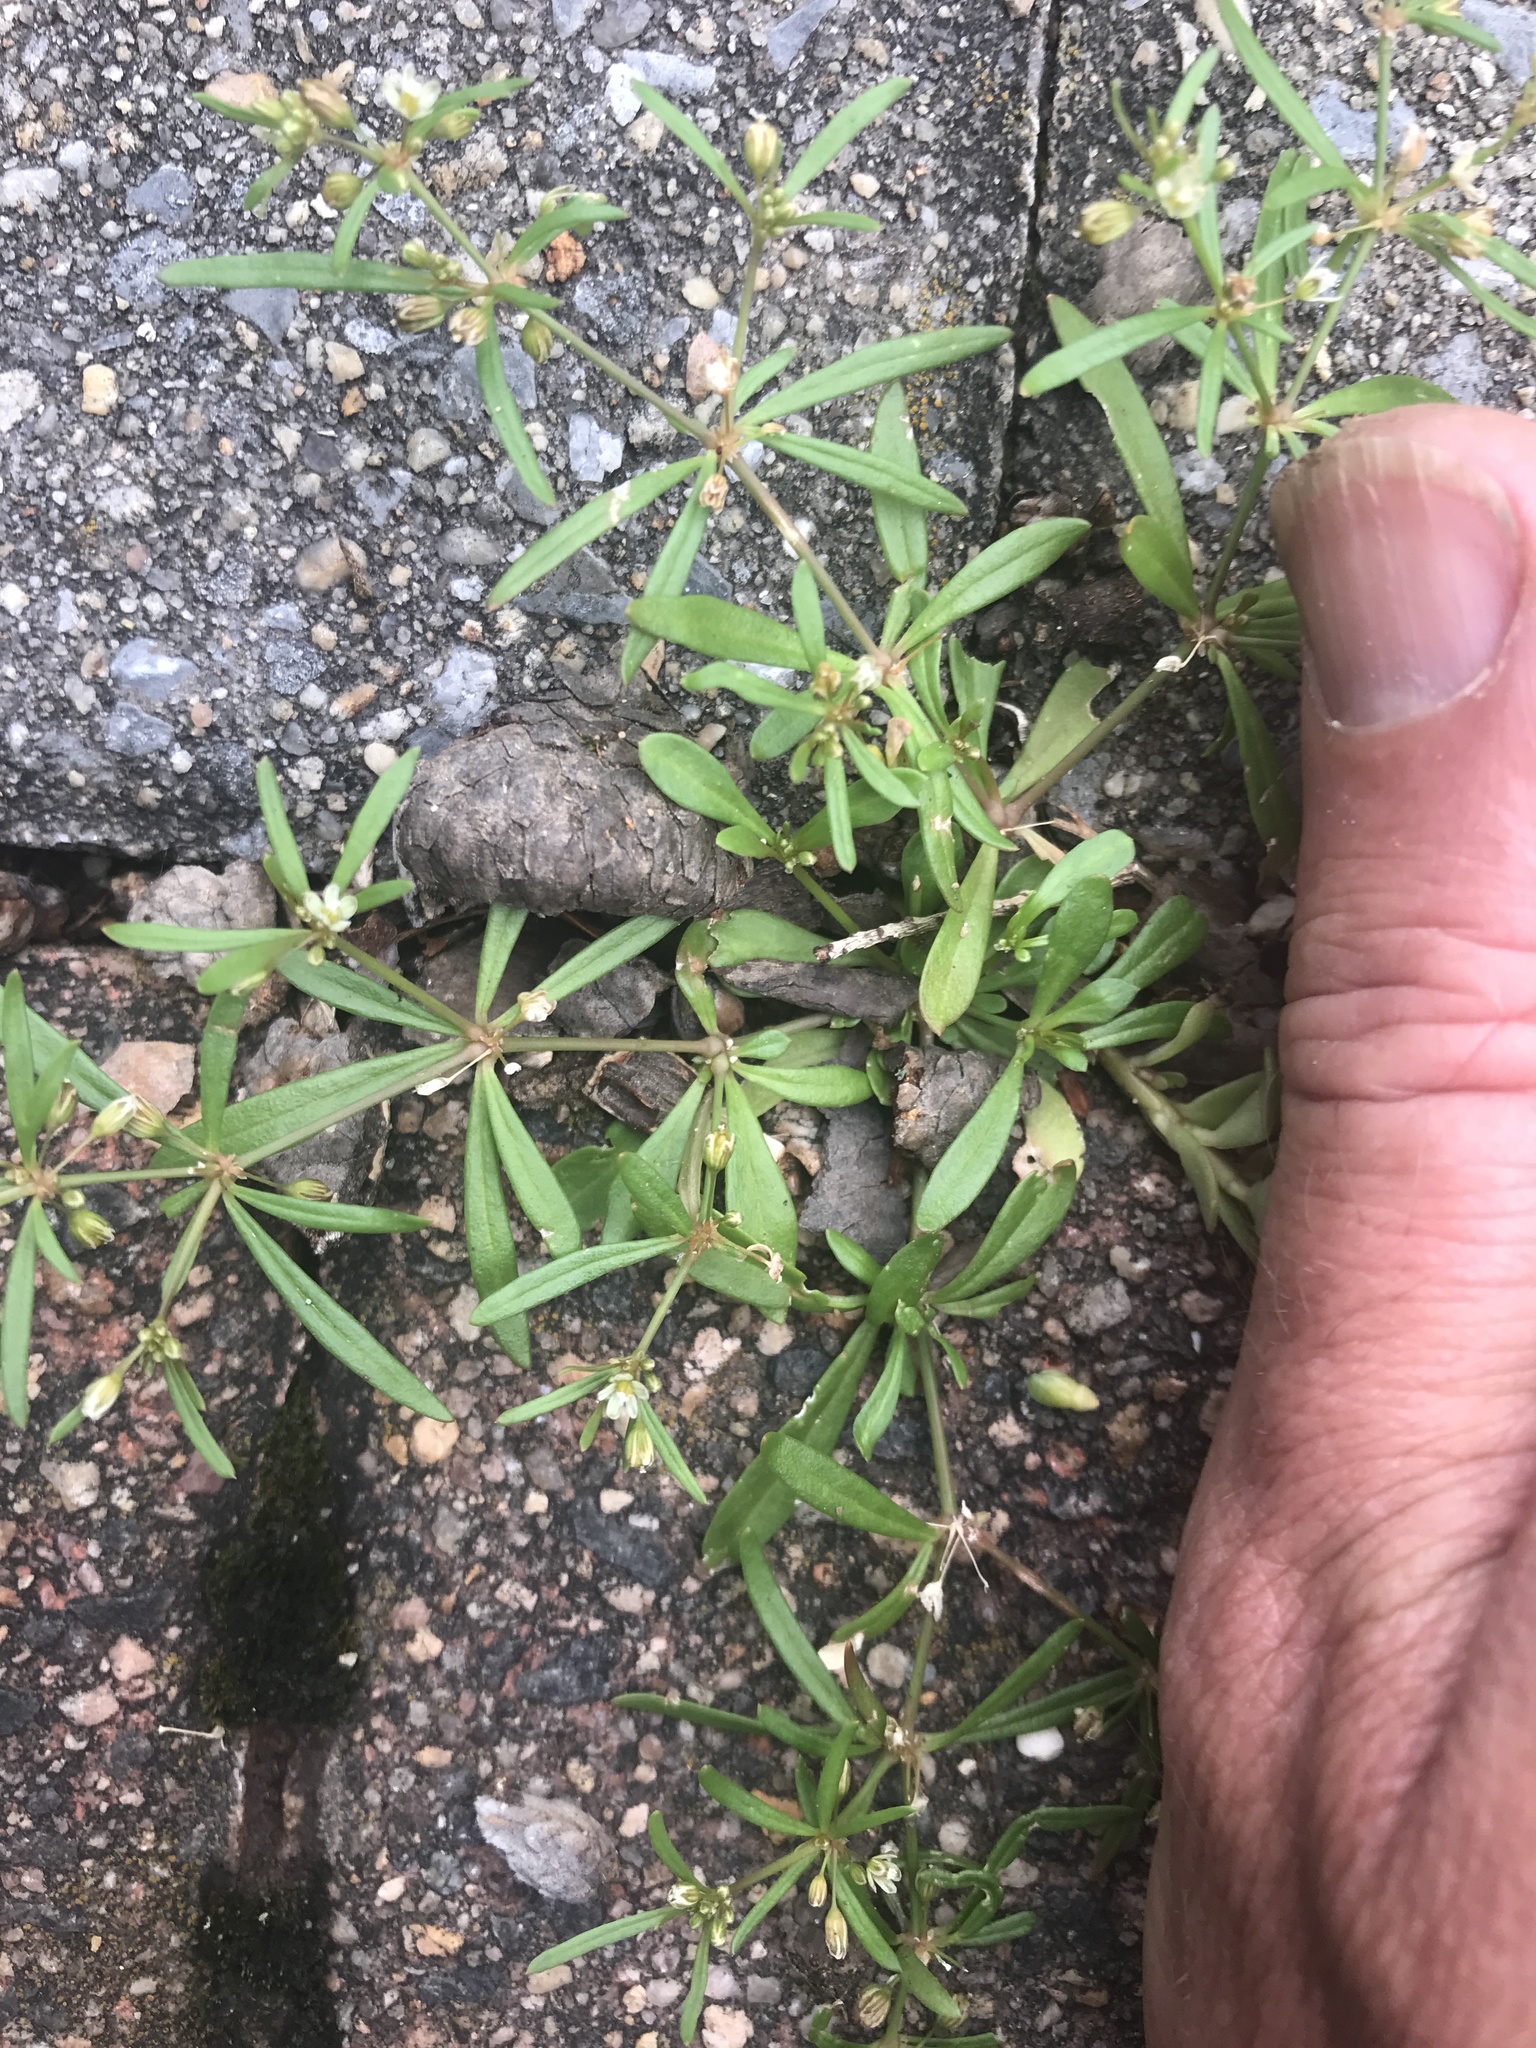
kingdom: Plantae
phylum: Tracheophyta
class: Magnoliopsida
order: Caryophyllales
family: Molluginaceae
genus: Mollugo
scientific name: Mollugo verticillata
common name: Green carpetweed
